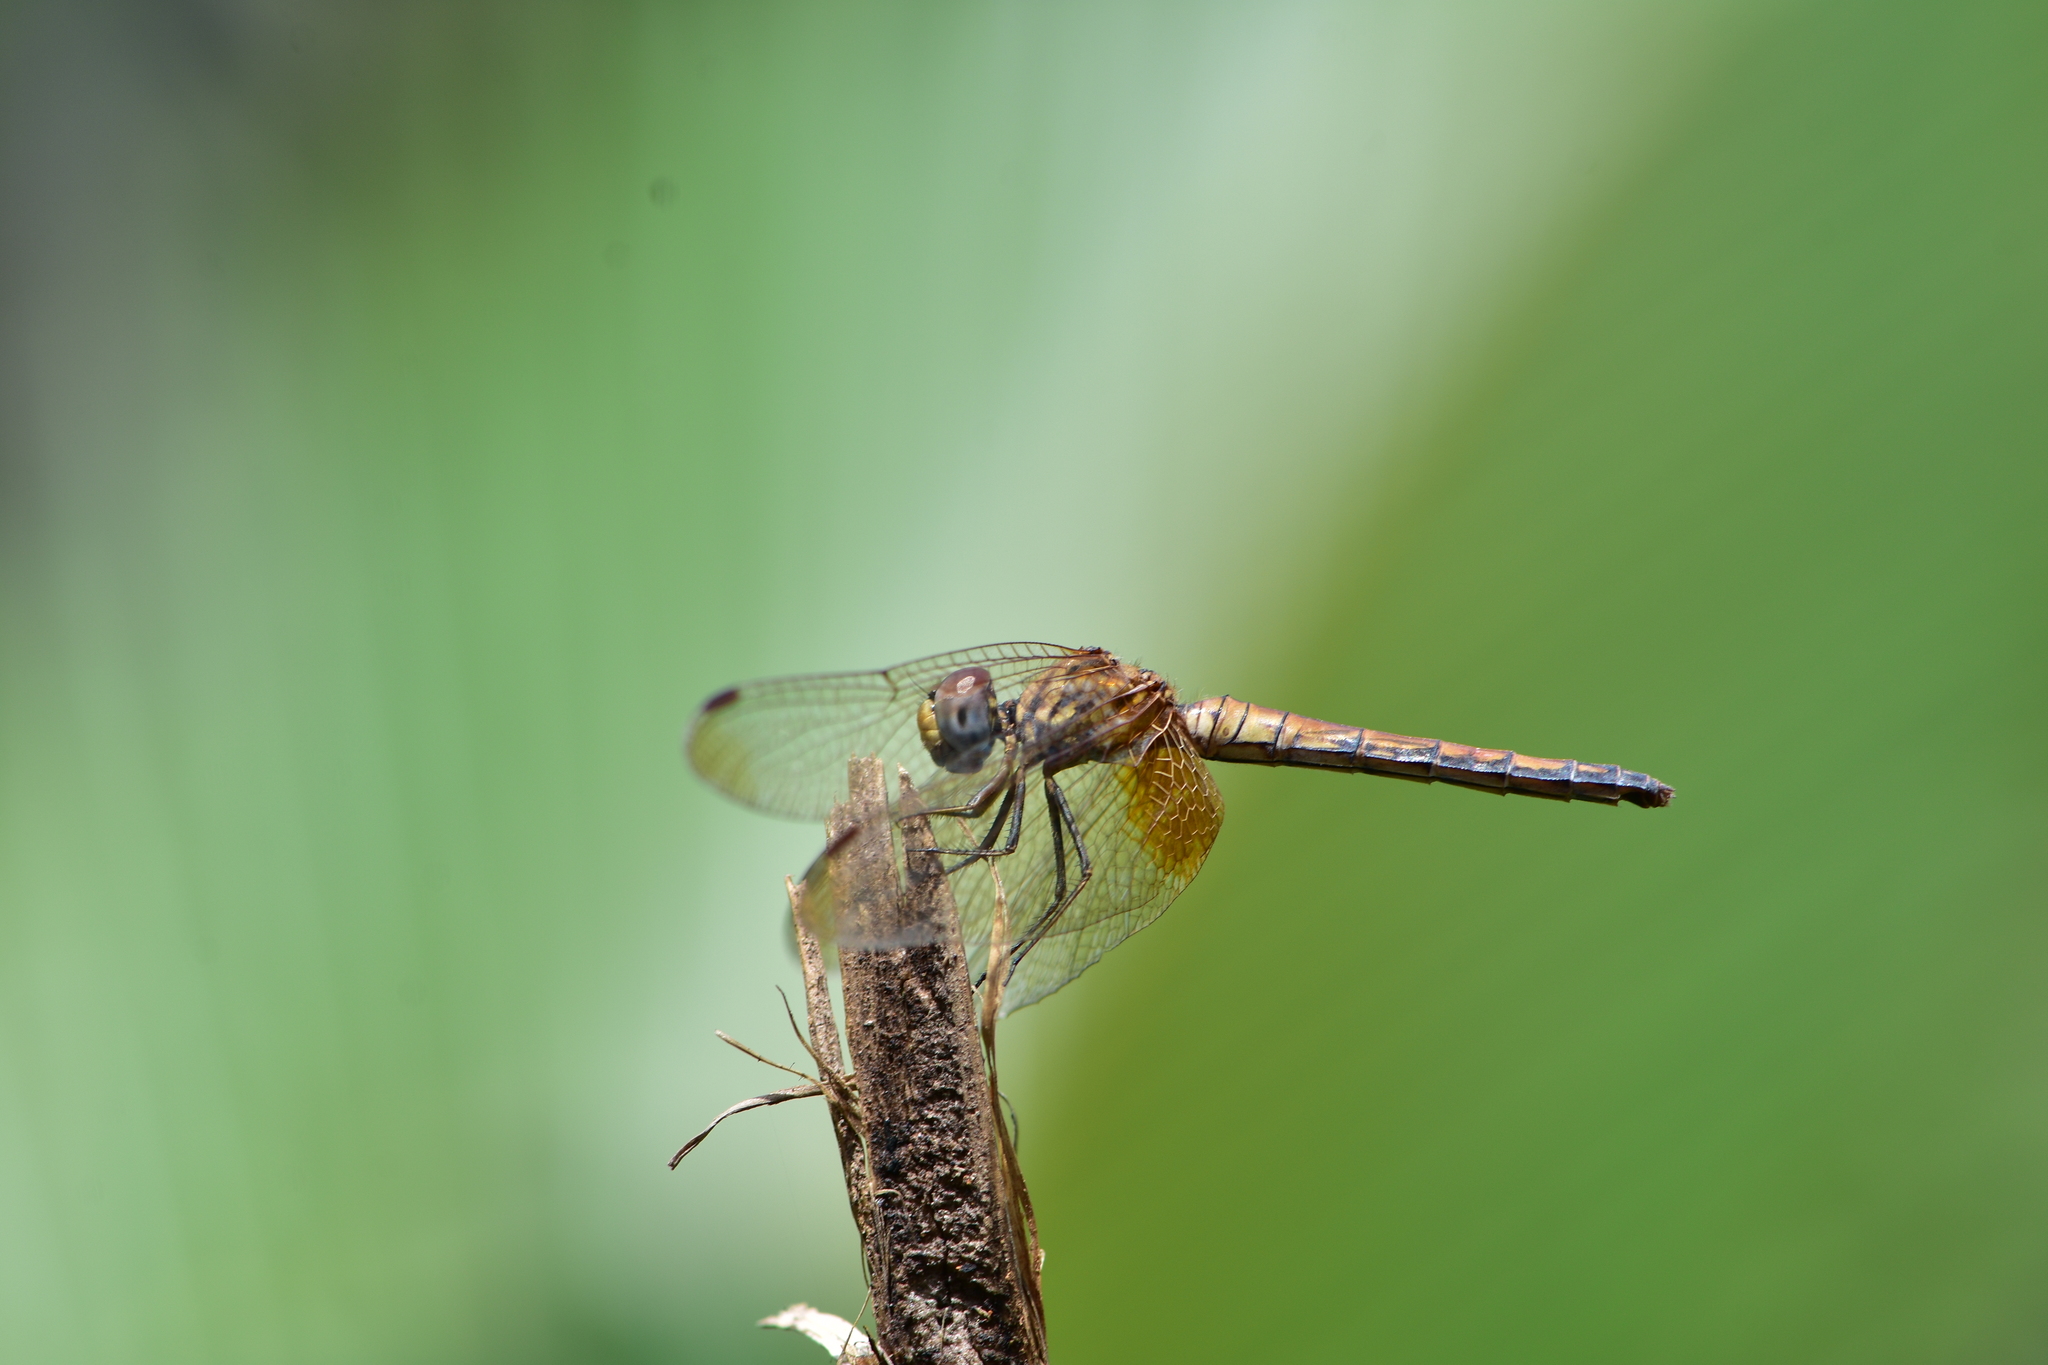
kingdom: Animalia
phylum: Arthropoda
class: Insecta
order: Odonata
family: Libellulidae
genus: Trithemis
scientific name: Trithemis aurora
